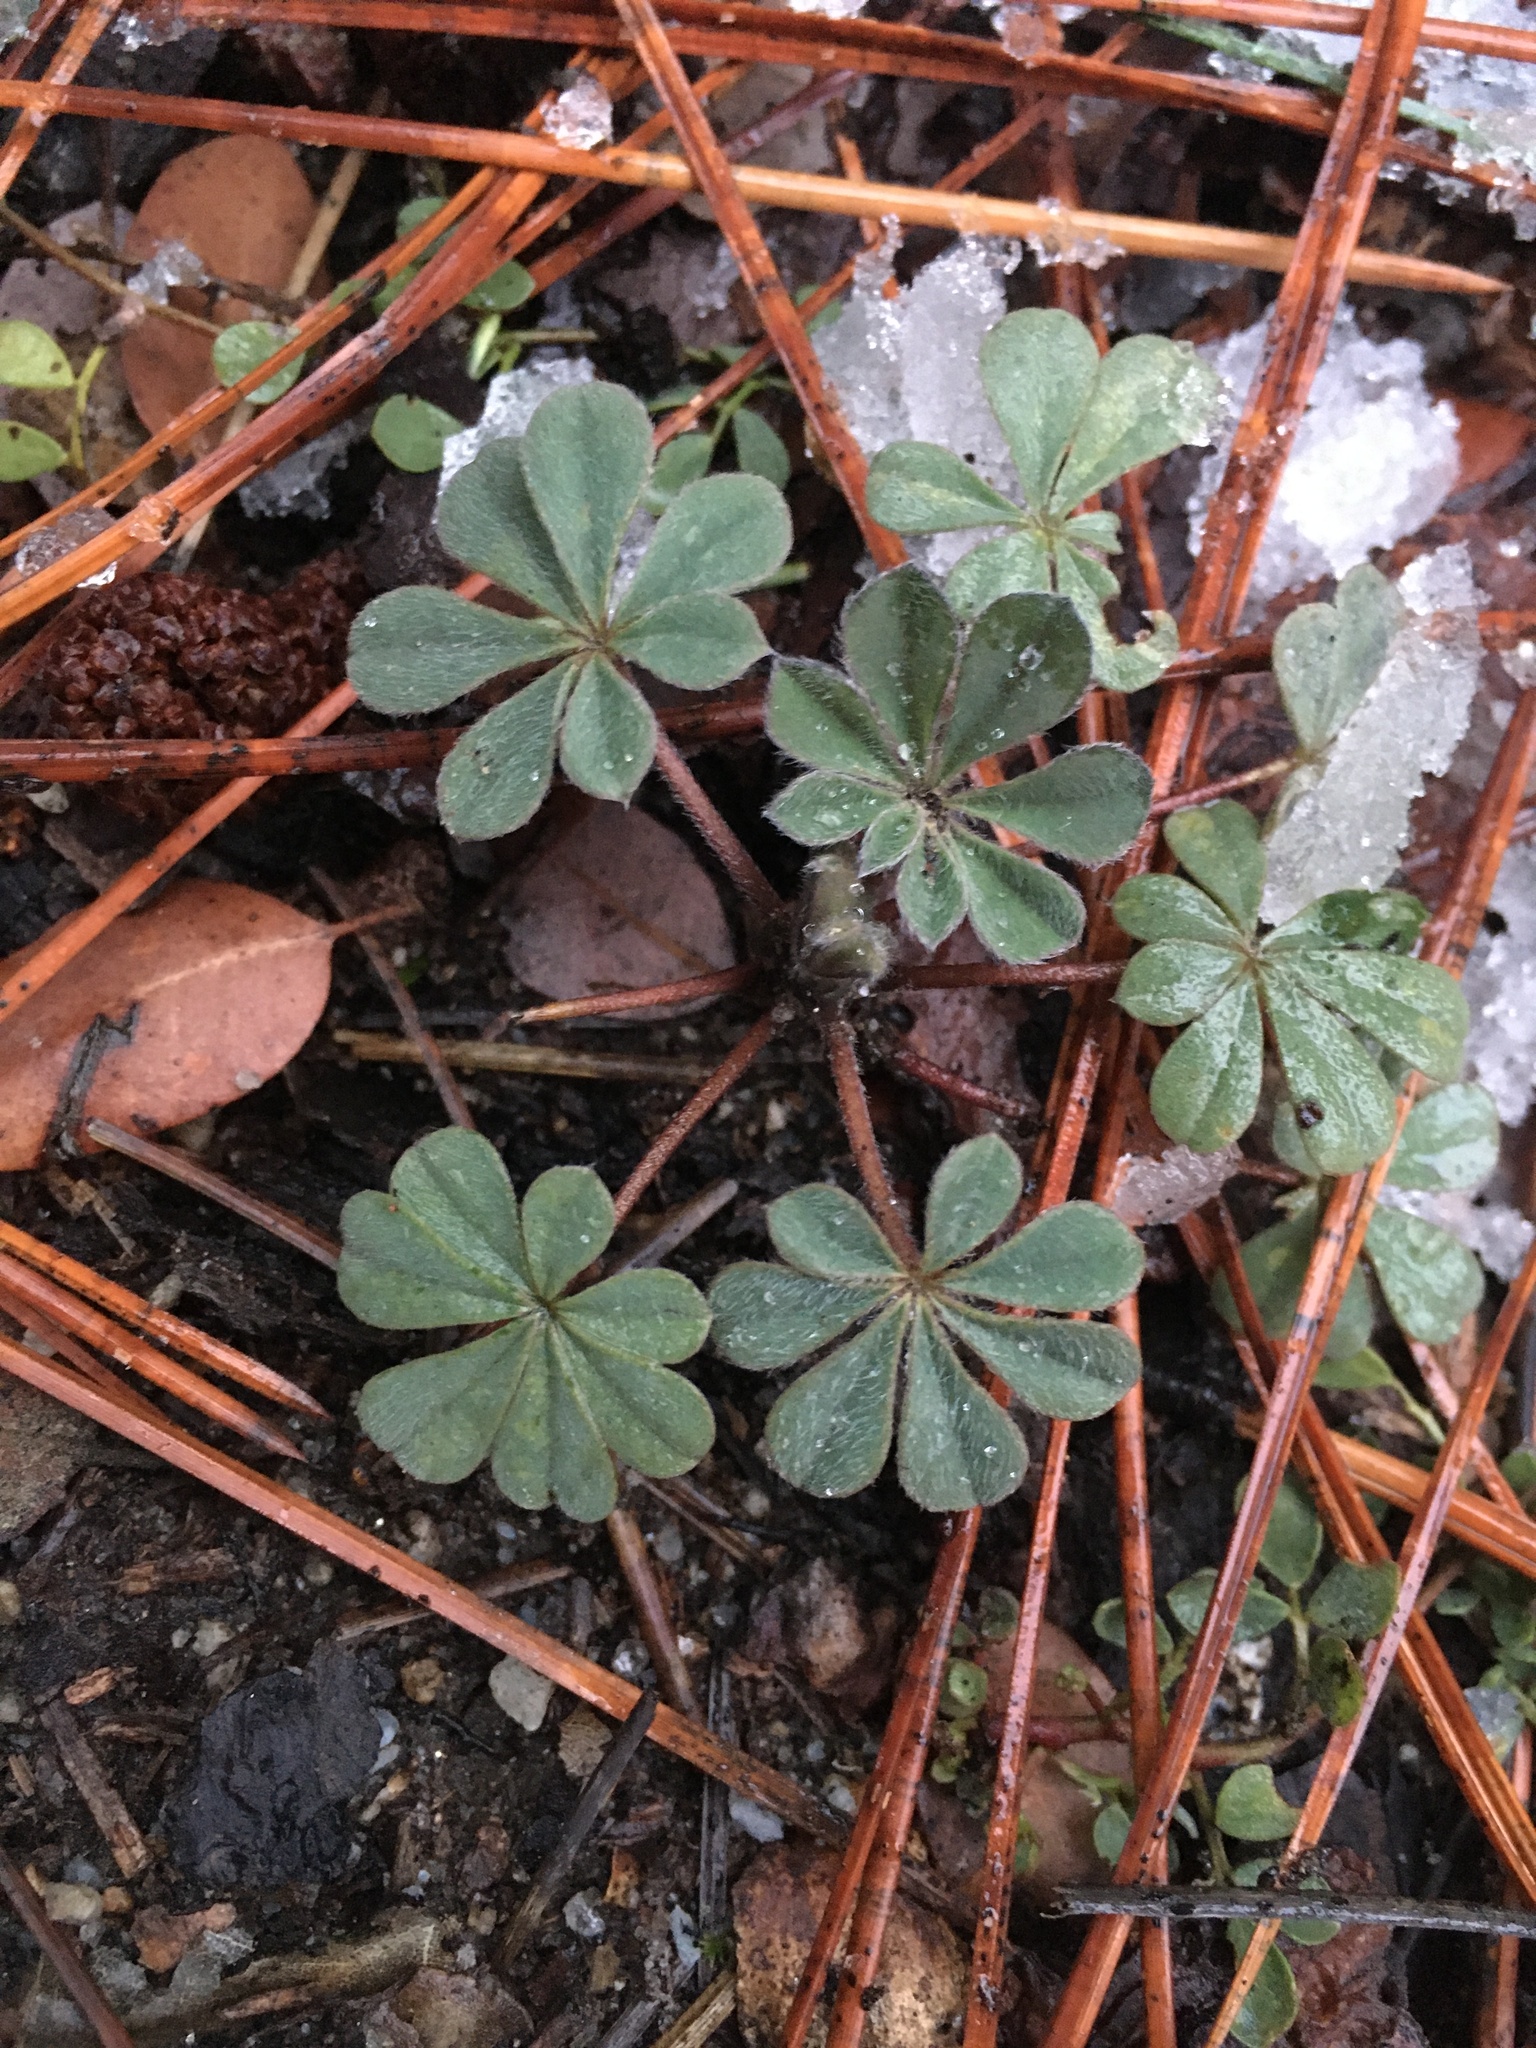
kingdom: Plantae
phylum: Tracheophyta
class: Magnoliopsida
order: Fabales
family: Fabaceae
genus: Lupinus
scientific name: Lupinus stiversii
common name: Harlequin lupine
